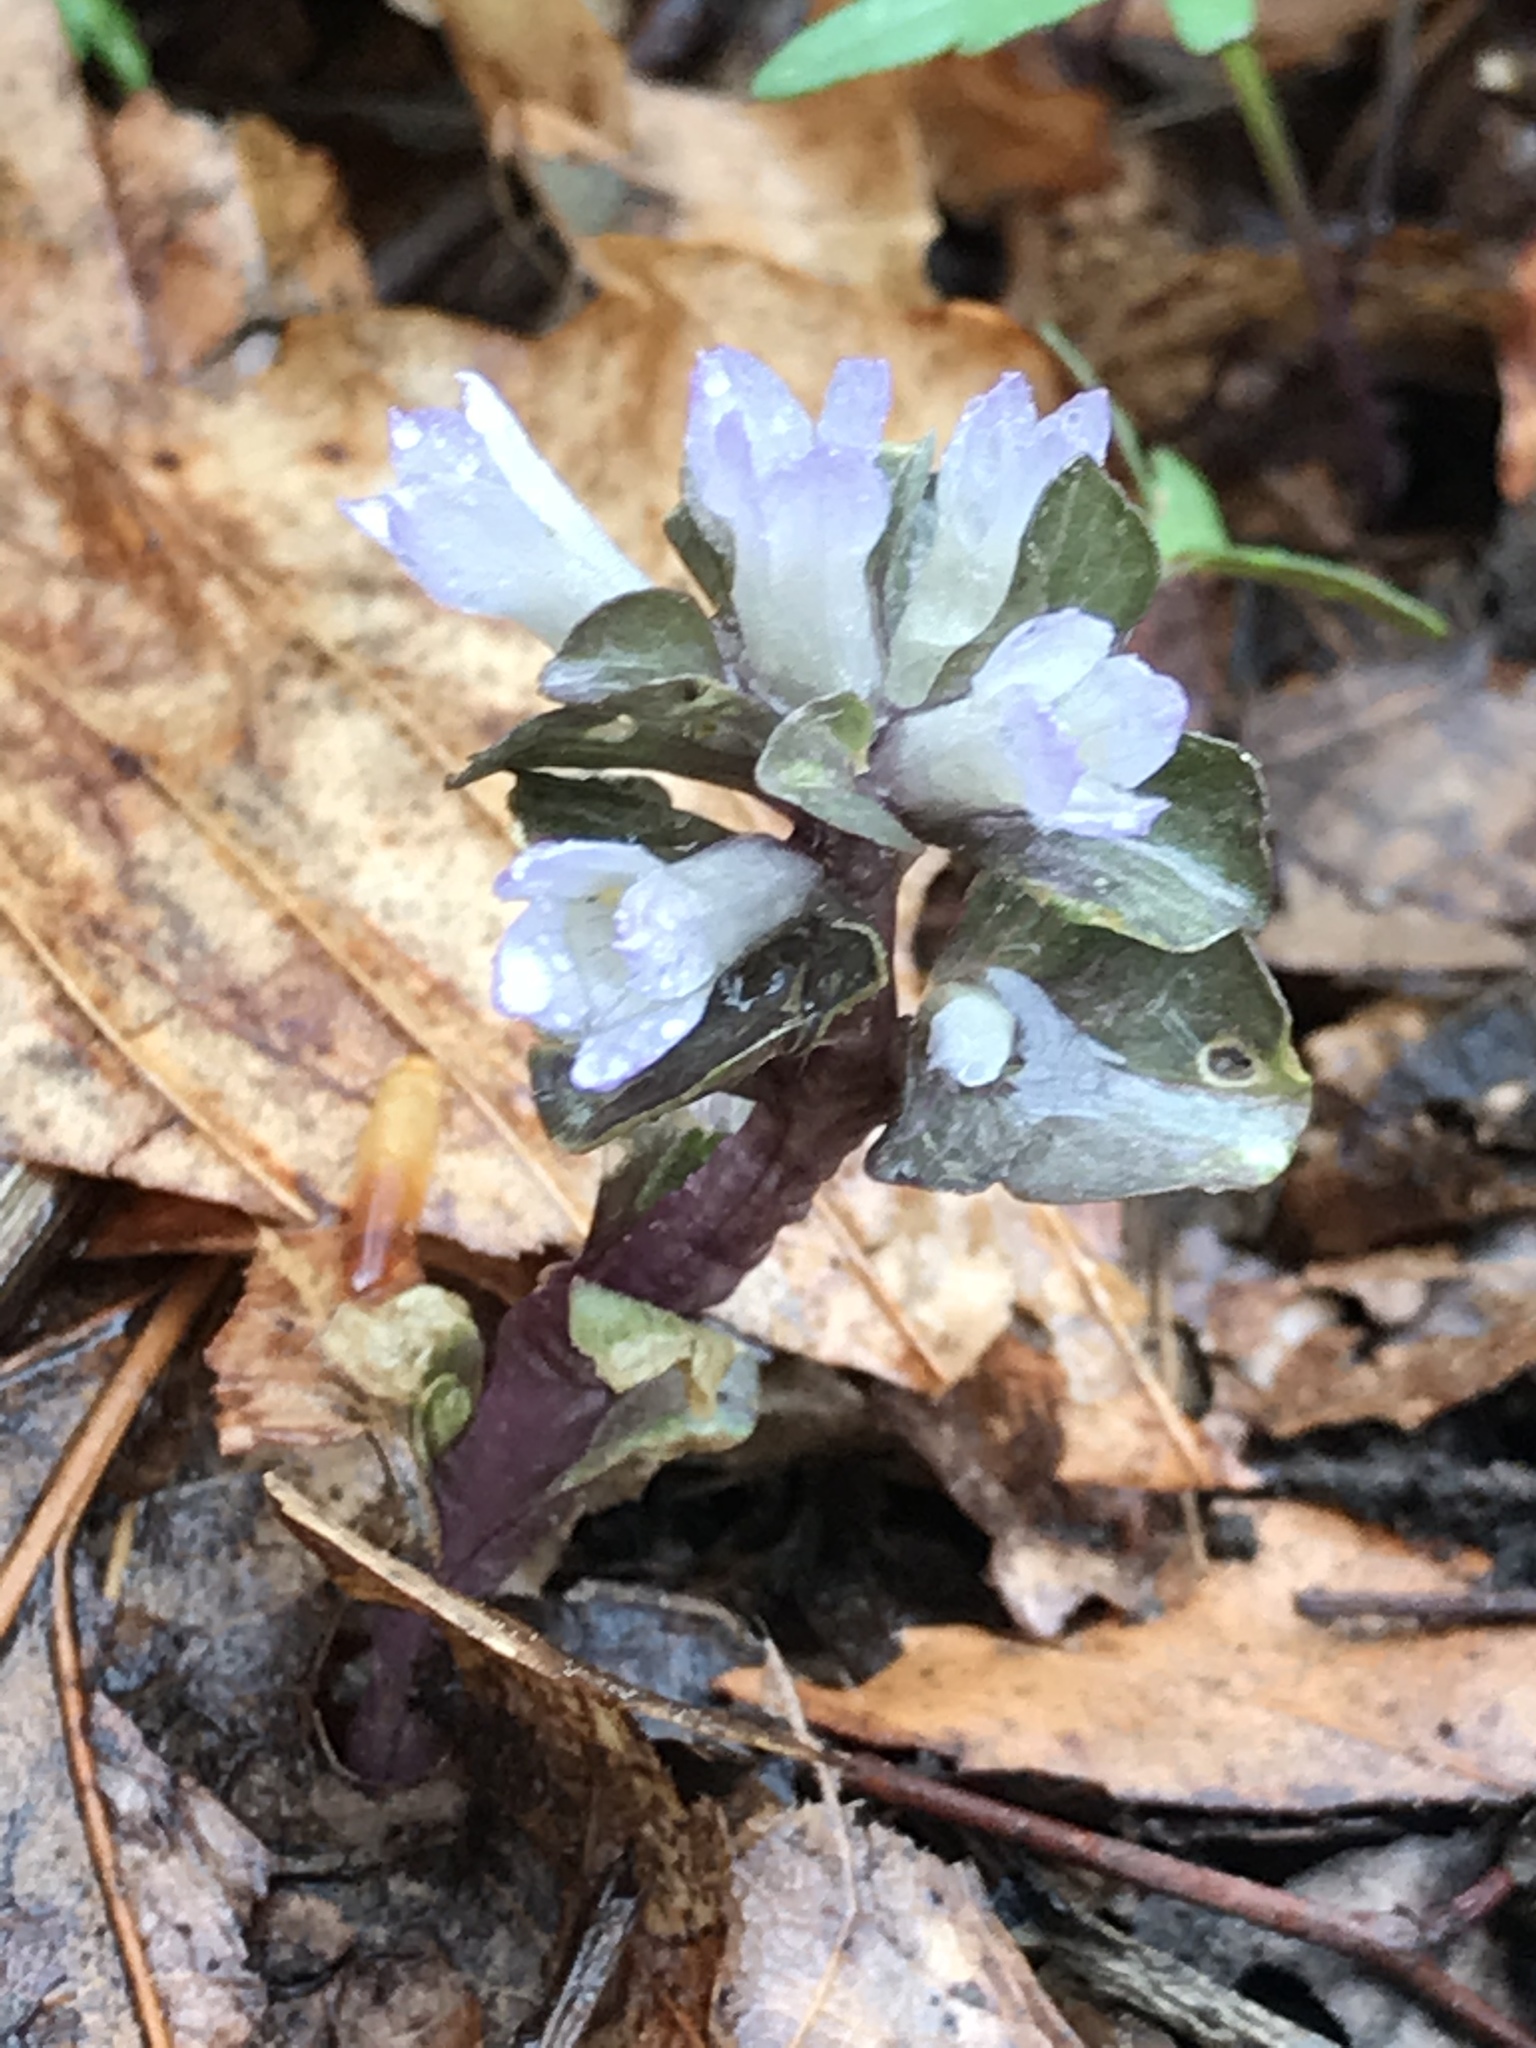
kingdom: Plantae
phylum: Tracheophyta
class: Magnoliopsida
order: Gentianales
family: Gentianaceae
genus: Obolaria
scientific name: Obolaria virginica
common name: Pennywort
